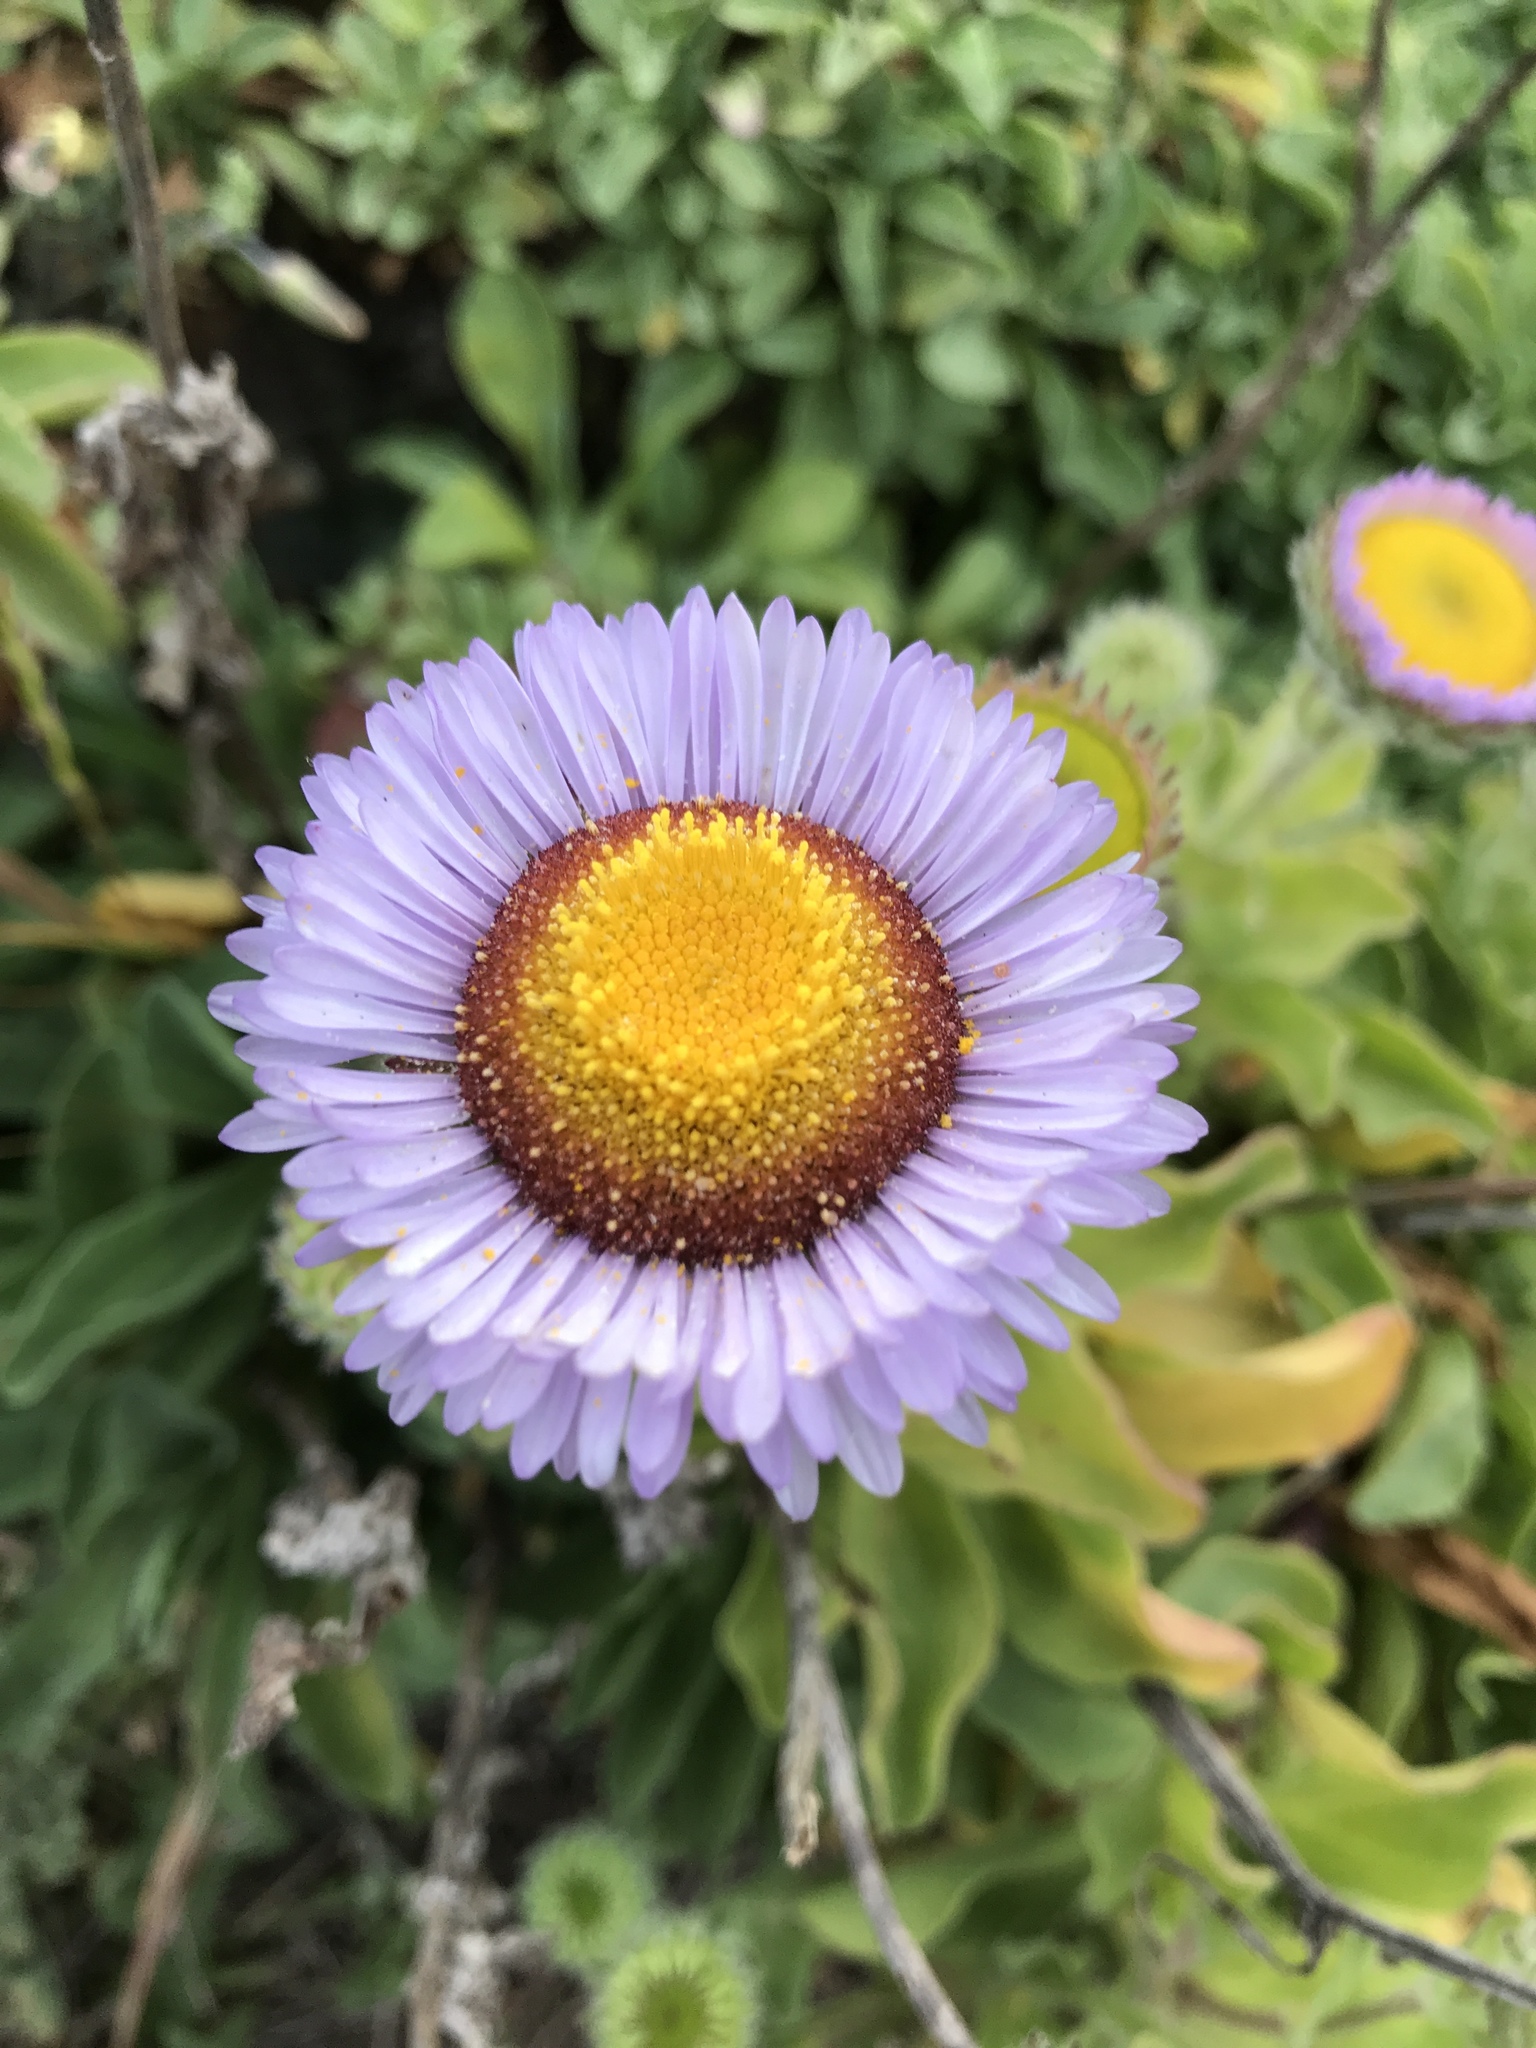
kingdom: Plantae
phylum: Tracheophyta
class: Magnoliopsida
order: Asterales
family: Asteraceae
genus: Erigeron
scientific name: Erigeron glaucus
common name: Seaside daisy
